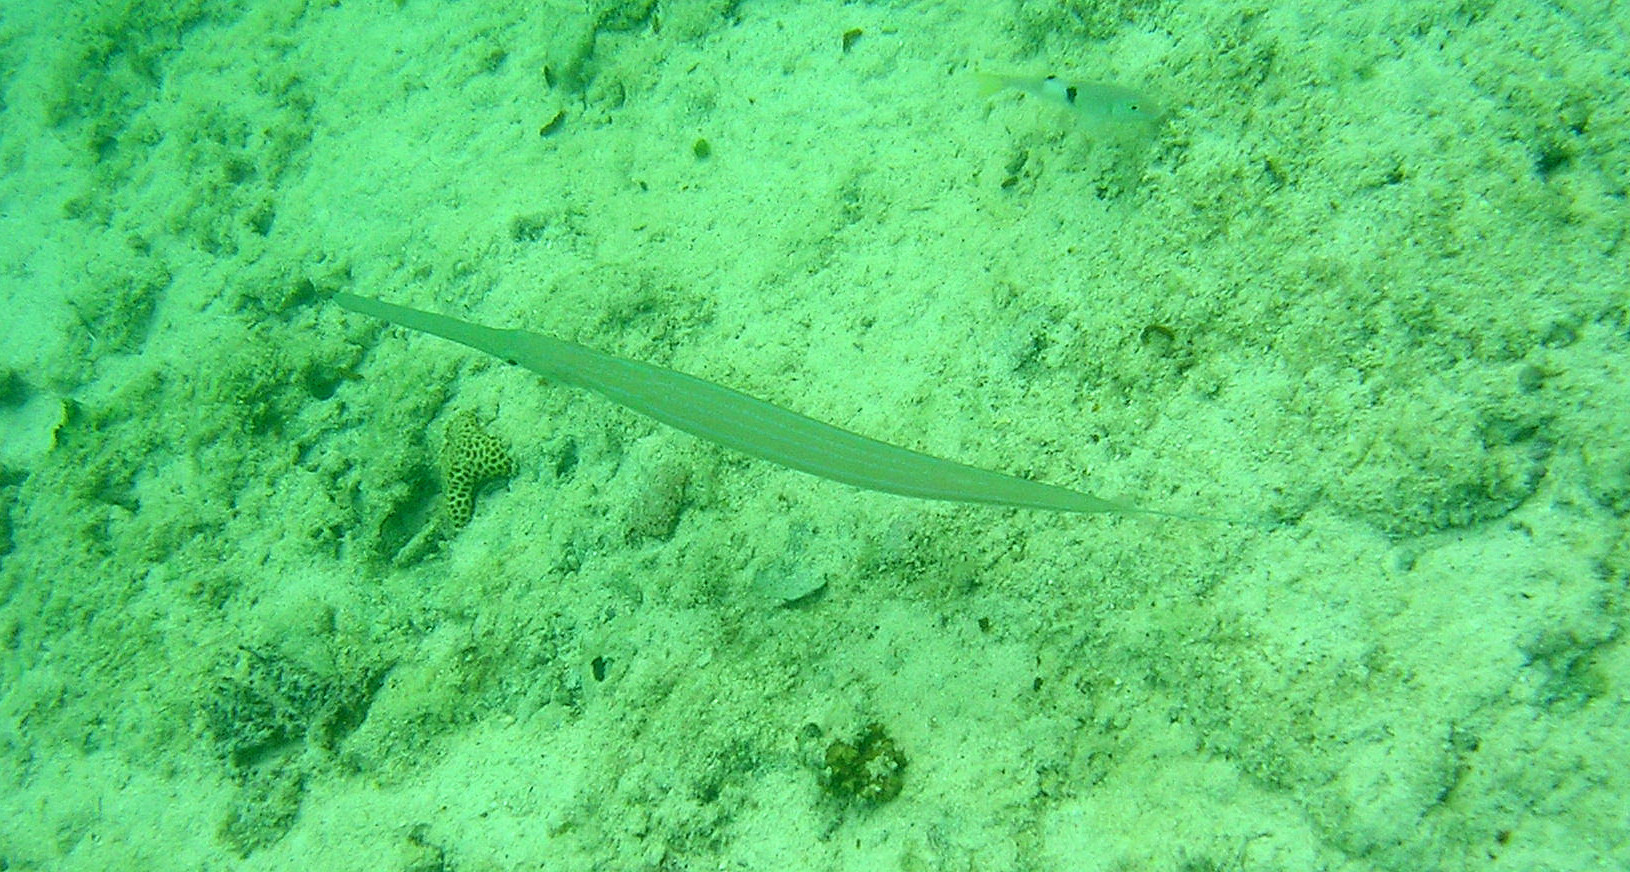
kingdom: Animalia
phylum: Chordata
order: Syngnathiformes
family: Fistulariidae
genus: Fistularia
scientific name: Fistularia commersonii
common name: Bluespotted cornetfish
